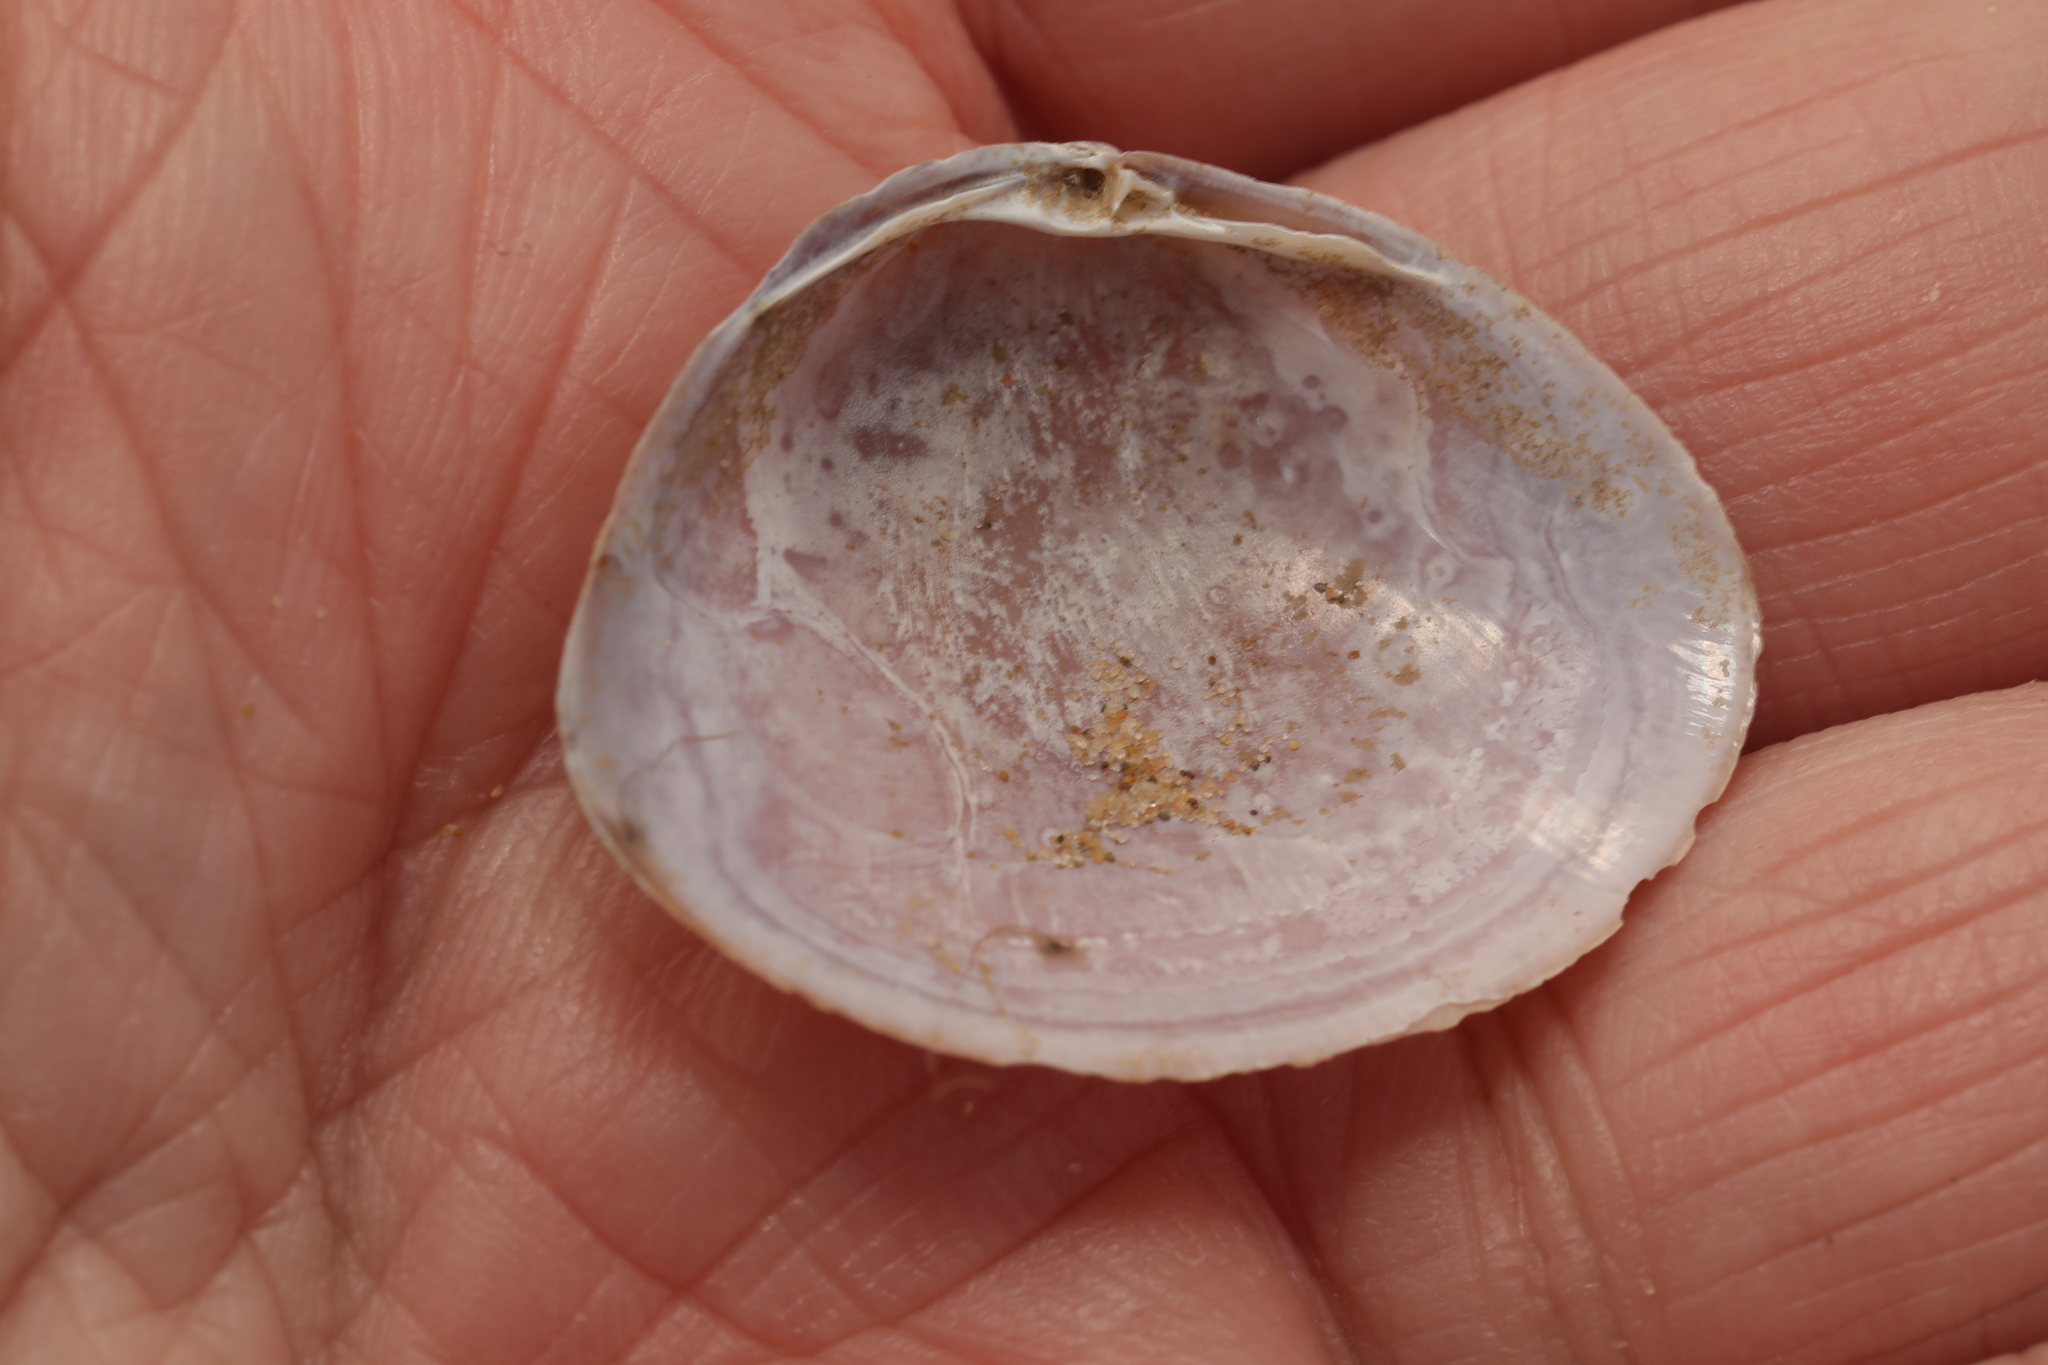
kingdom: Animalia
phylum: Mollusca
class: Bivalvia
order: Venerida
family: Mactridae
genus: Mactra
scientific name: Mactra stultorum
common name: Rayed trough shell
